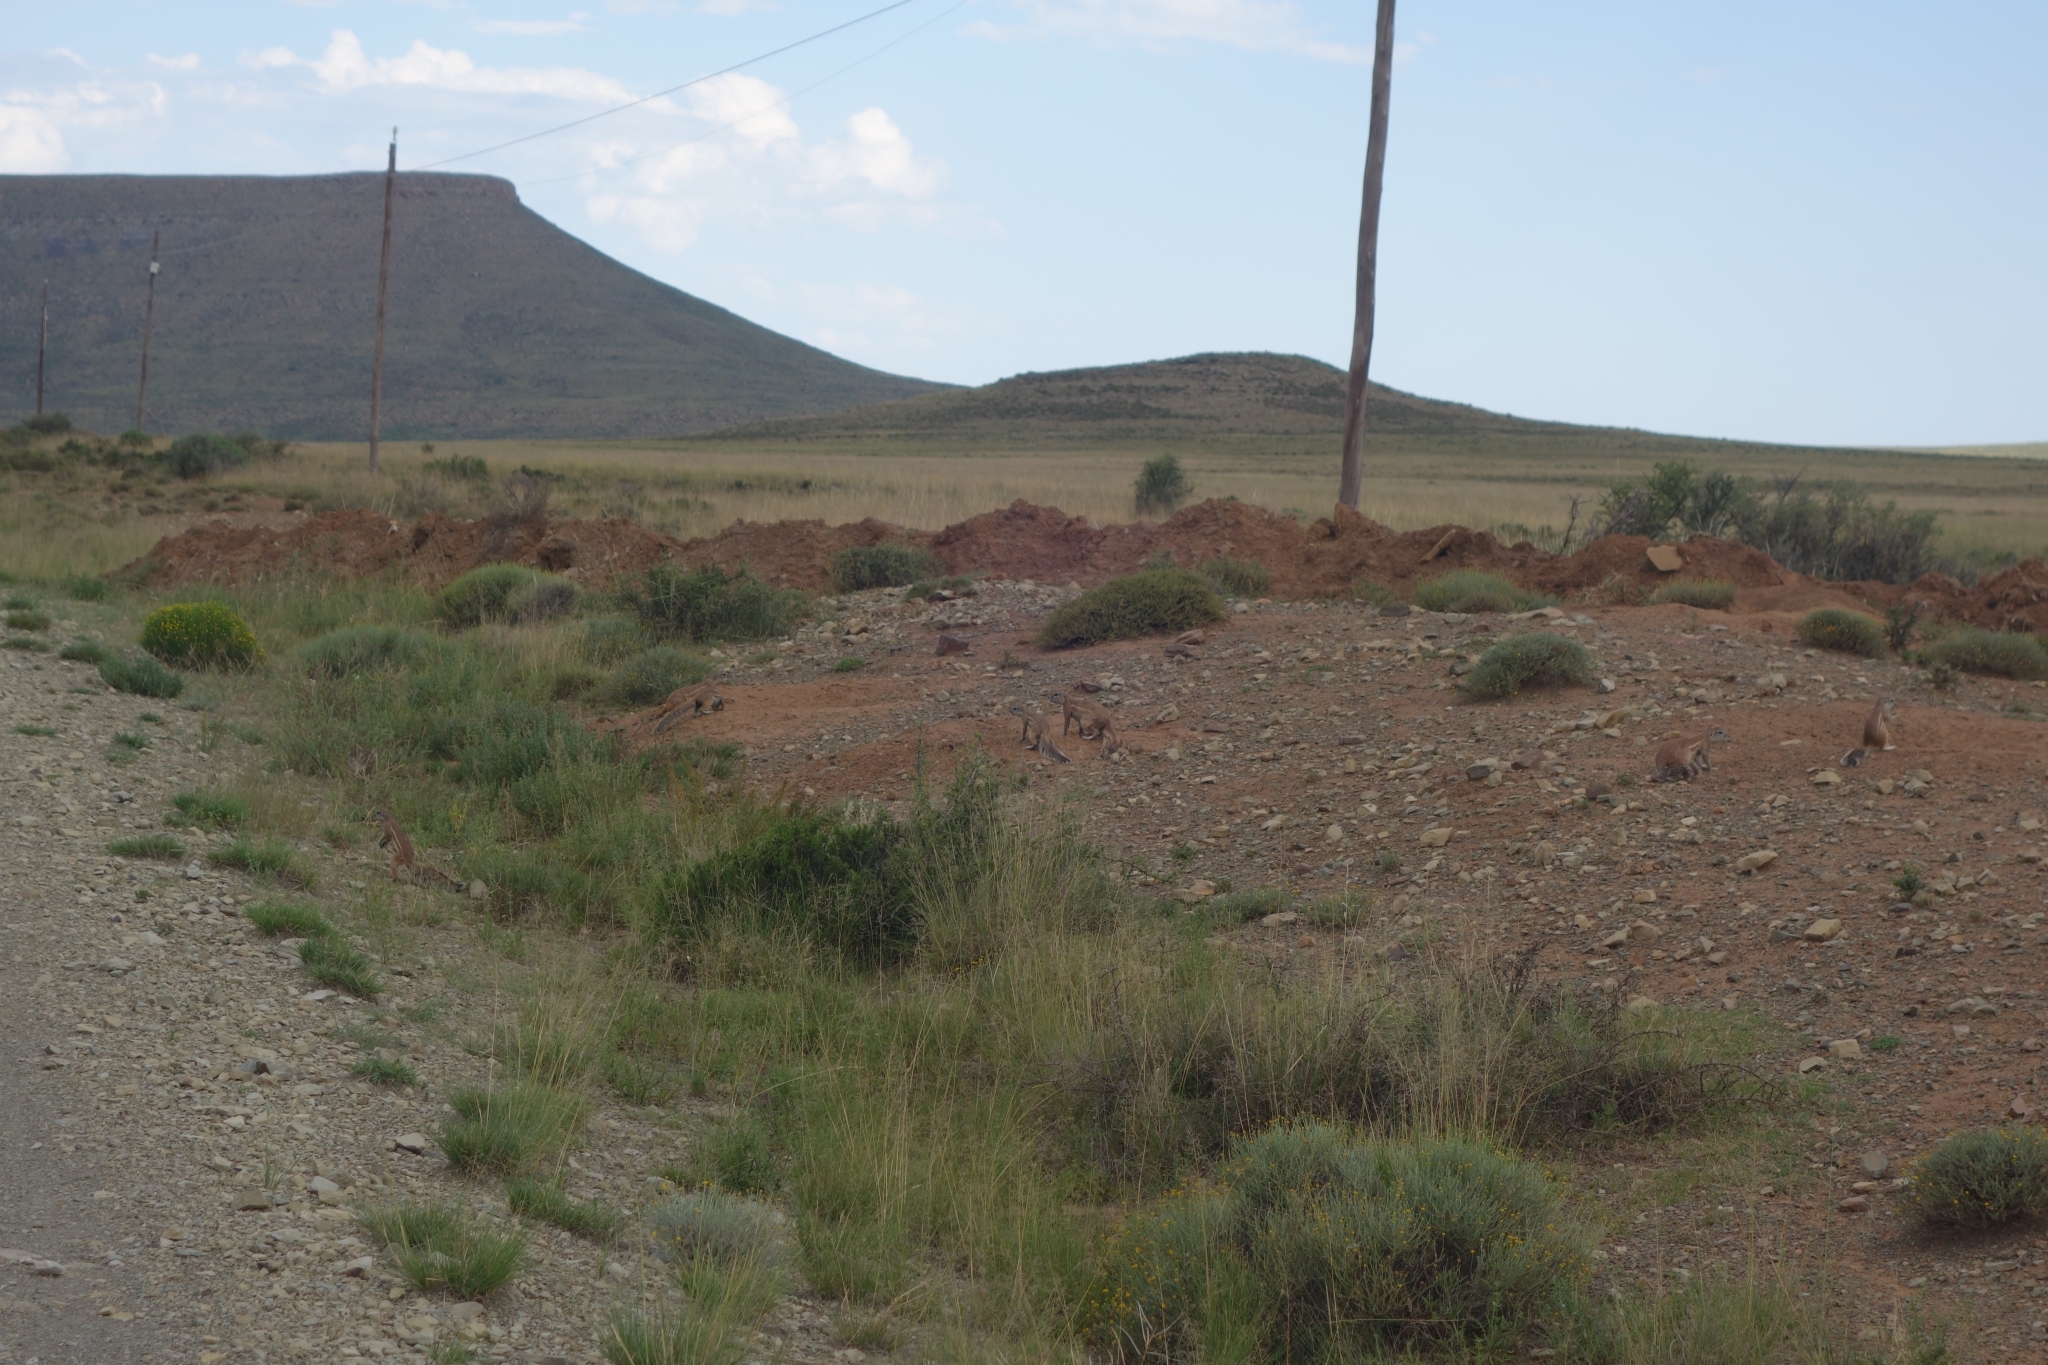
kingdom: Animalia
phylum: Chordata
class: Mammalia
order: Rodentia
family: Sciuridae
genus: Xerus
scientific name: Xerus inauris
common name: South african ground squirrel
